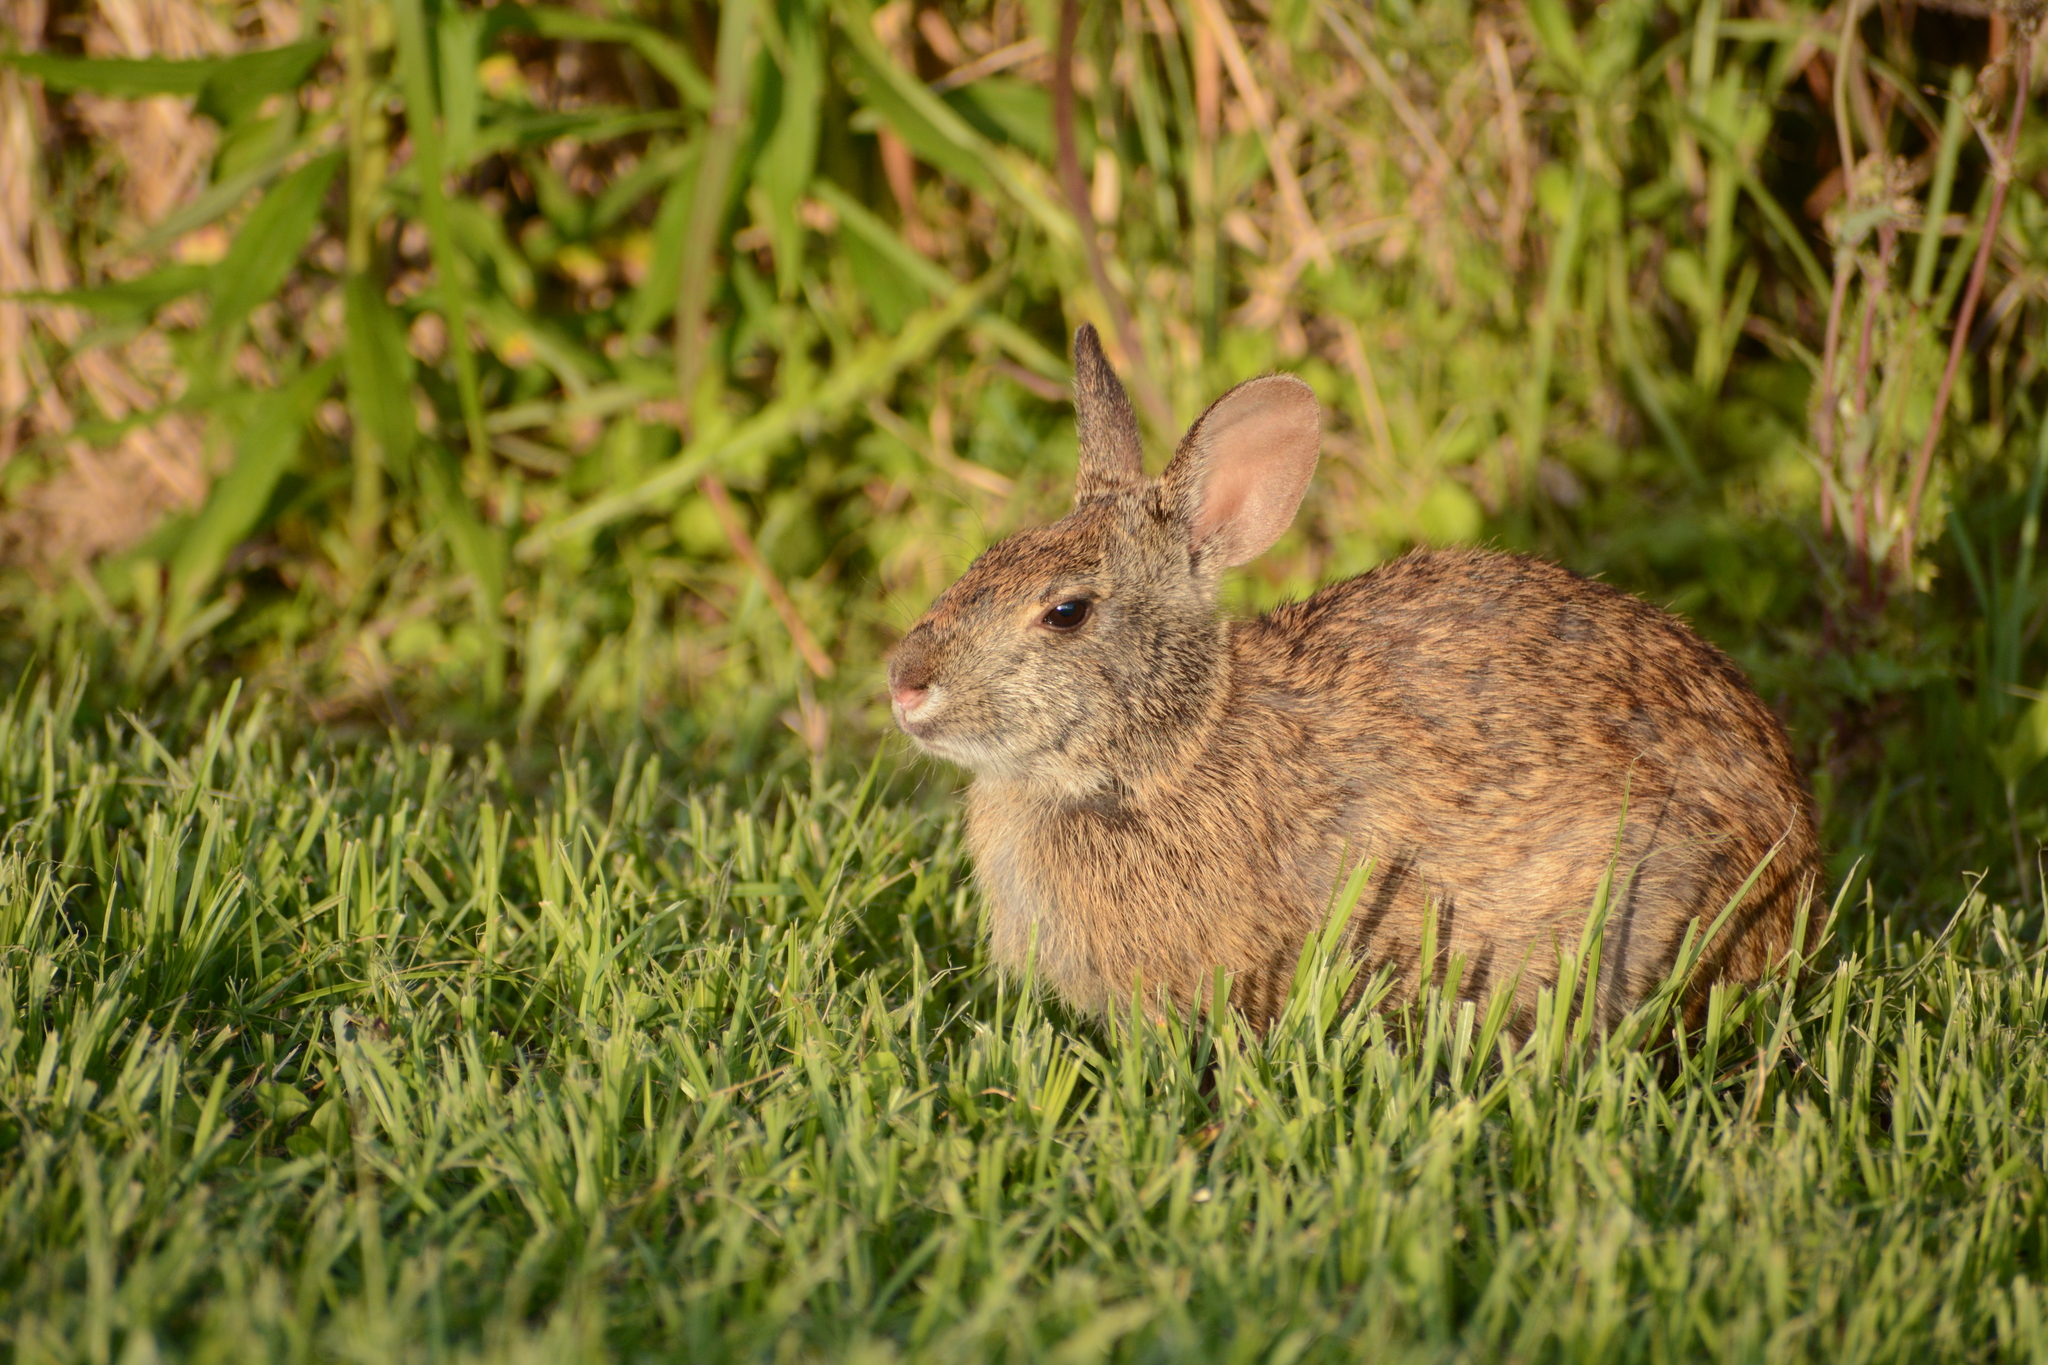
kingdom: Animalia
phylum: Chordata
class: Mammalia
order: Lagomorpha
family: Leporidae
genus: Sylvilagus
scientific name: Sylvilagus palustris
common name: Marsh rabbit
